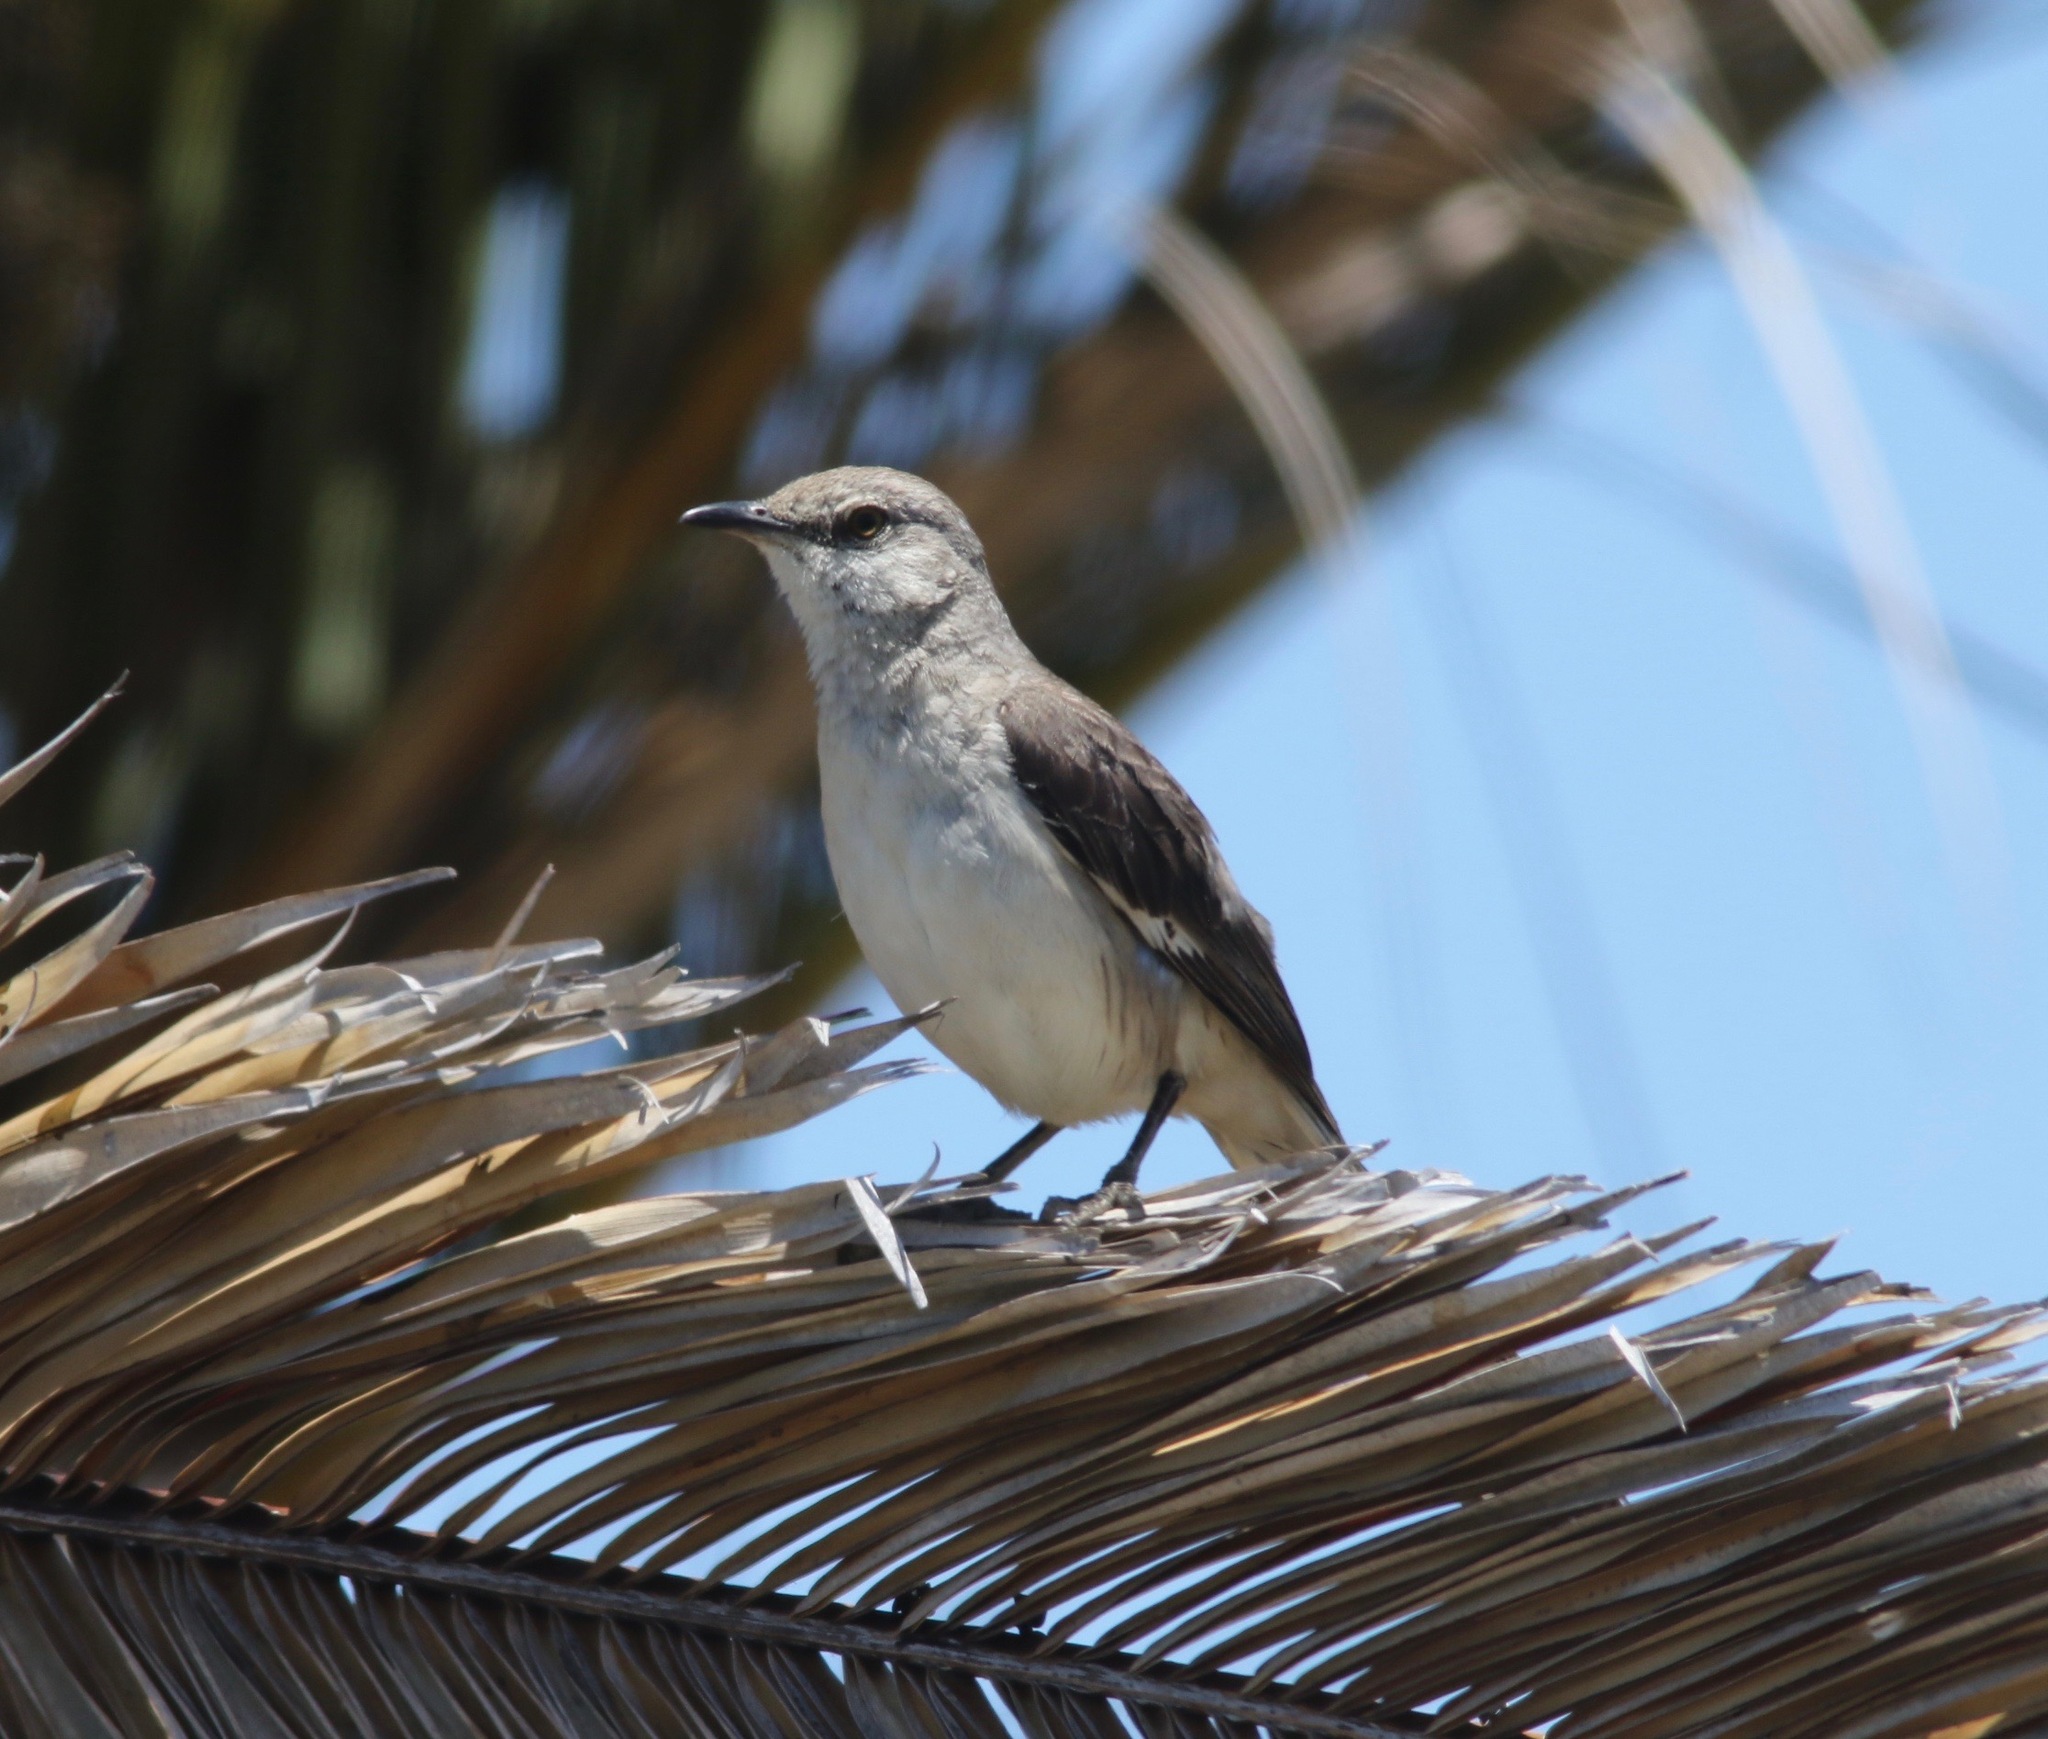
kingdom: Animalia
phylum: Chordata
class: Aves
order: Passeriformes
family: Mimidae
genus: Mimus
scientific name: Mimus polyglottos
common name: Northern mockingbird
